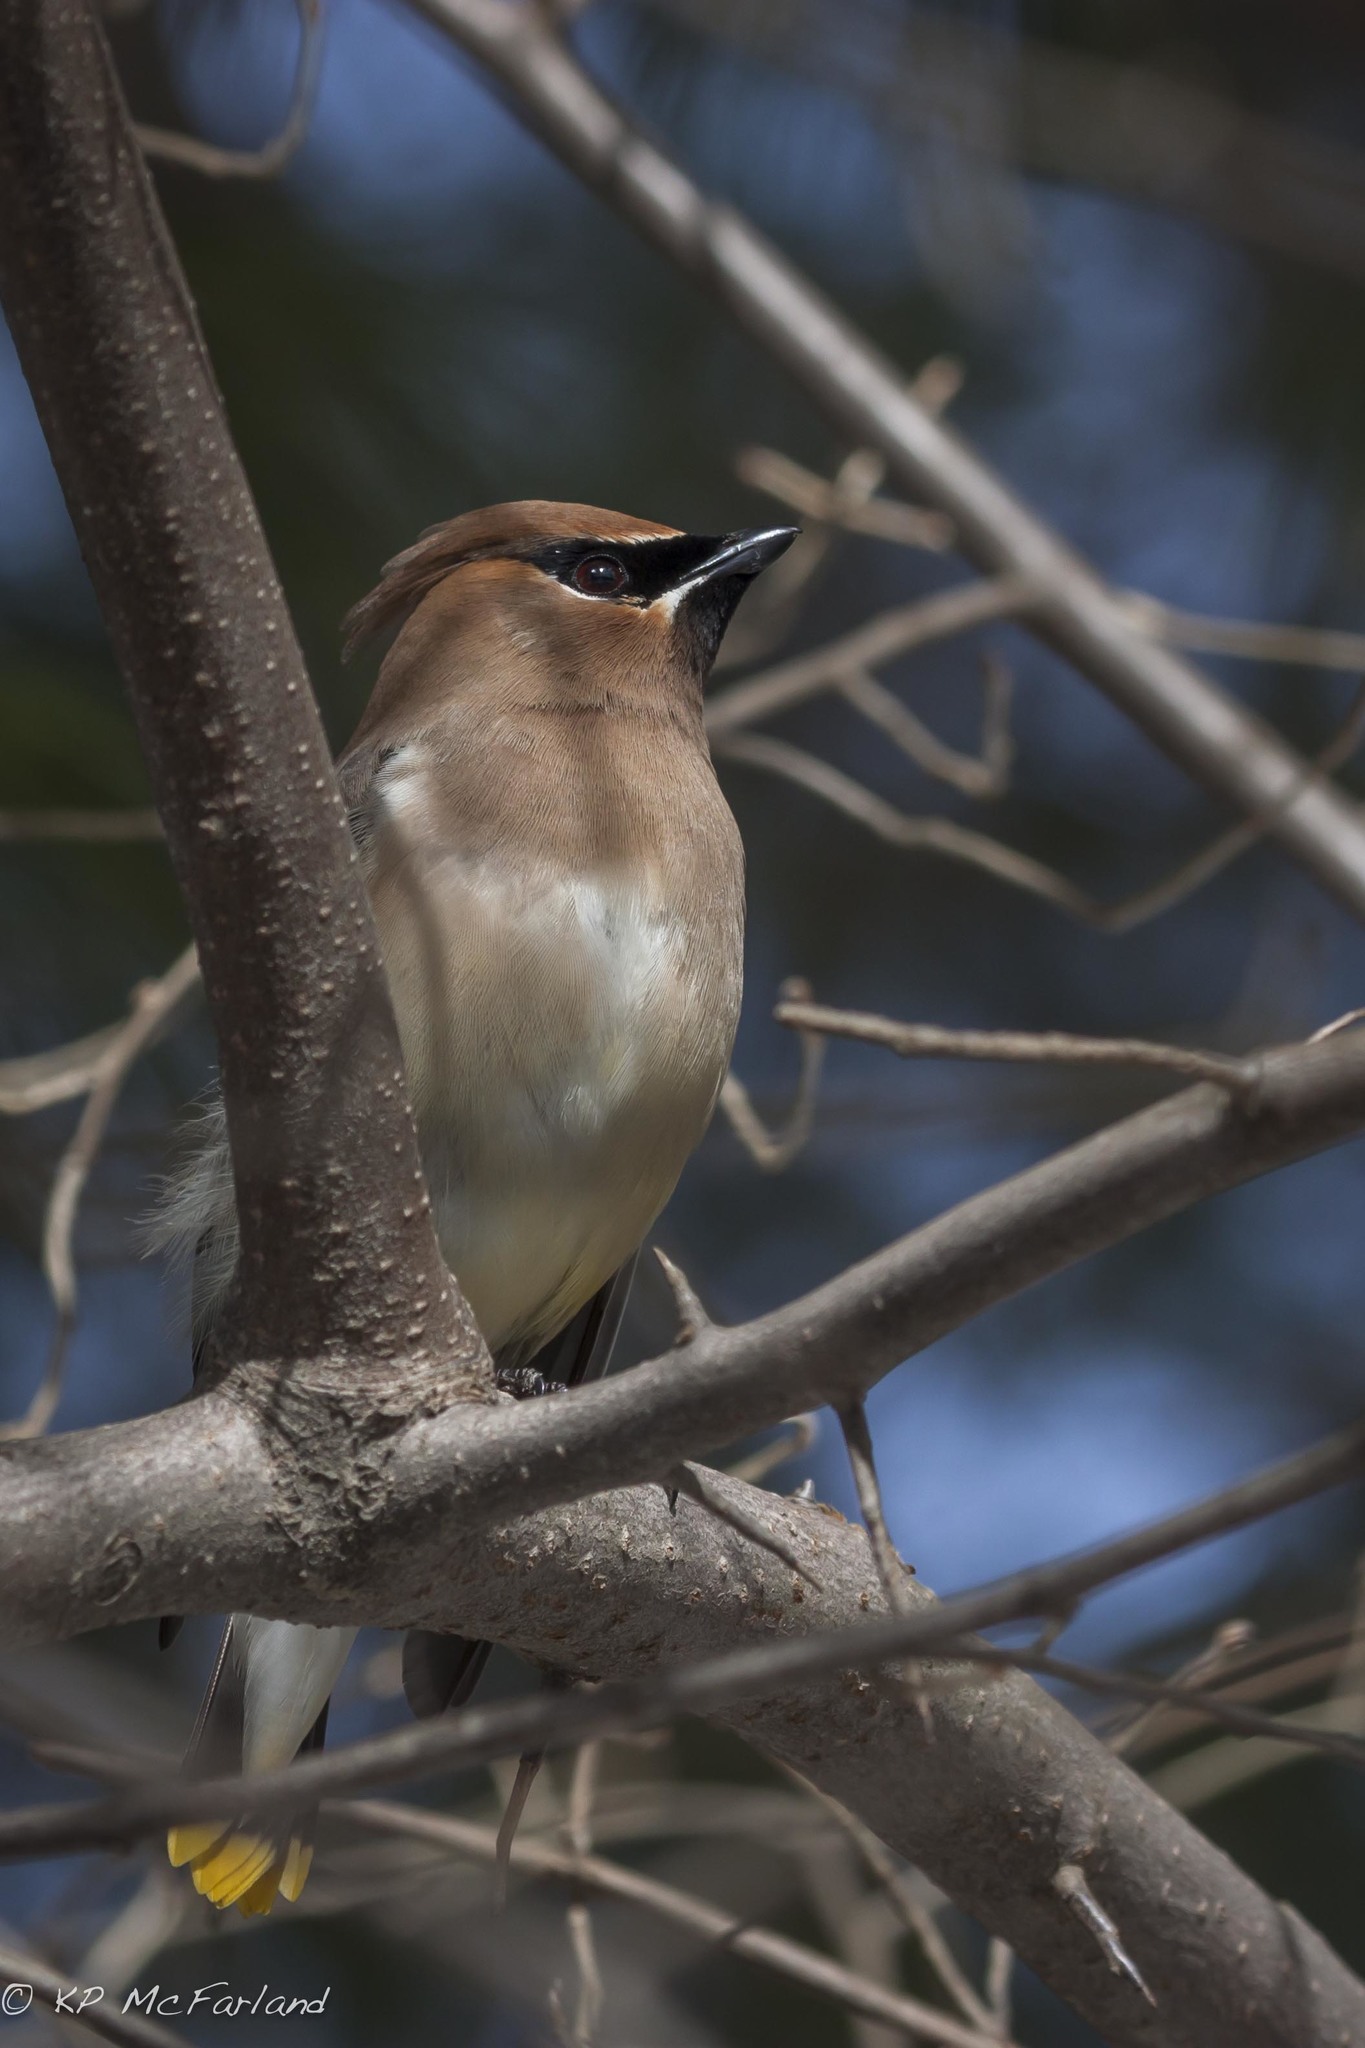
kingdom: Animalia
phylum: Chordata
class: Aves
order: Passeriformes
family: Bombycillidae
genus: Bombycilla
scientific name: Bombycilla cedrorum
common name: Cedar waxwing
